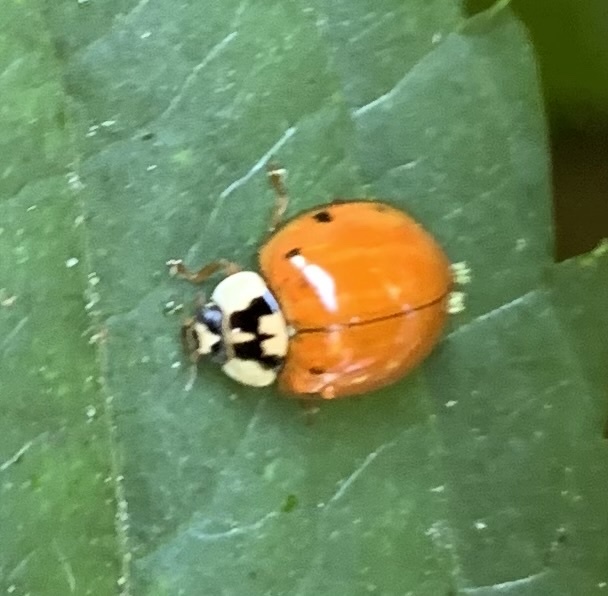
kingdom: Animalia
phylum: Arthropoda
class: Insecta
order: Coleoptera
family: Coccinellidae
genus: Harmonia
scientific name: Harmonia axyridis
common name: Harlequin ladybird
